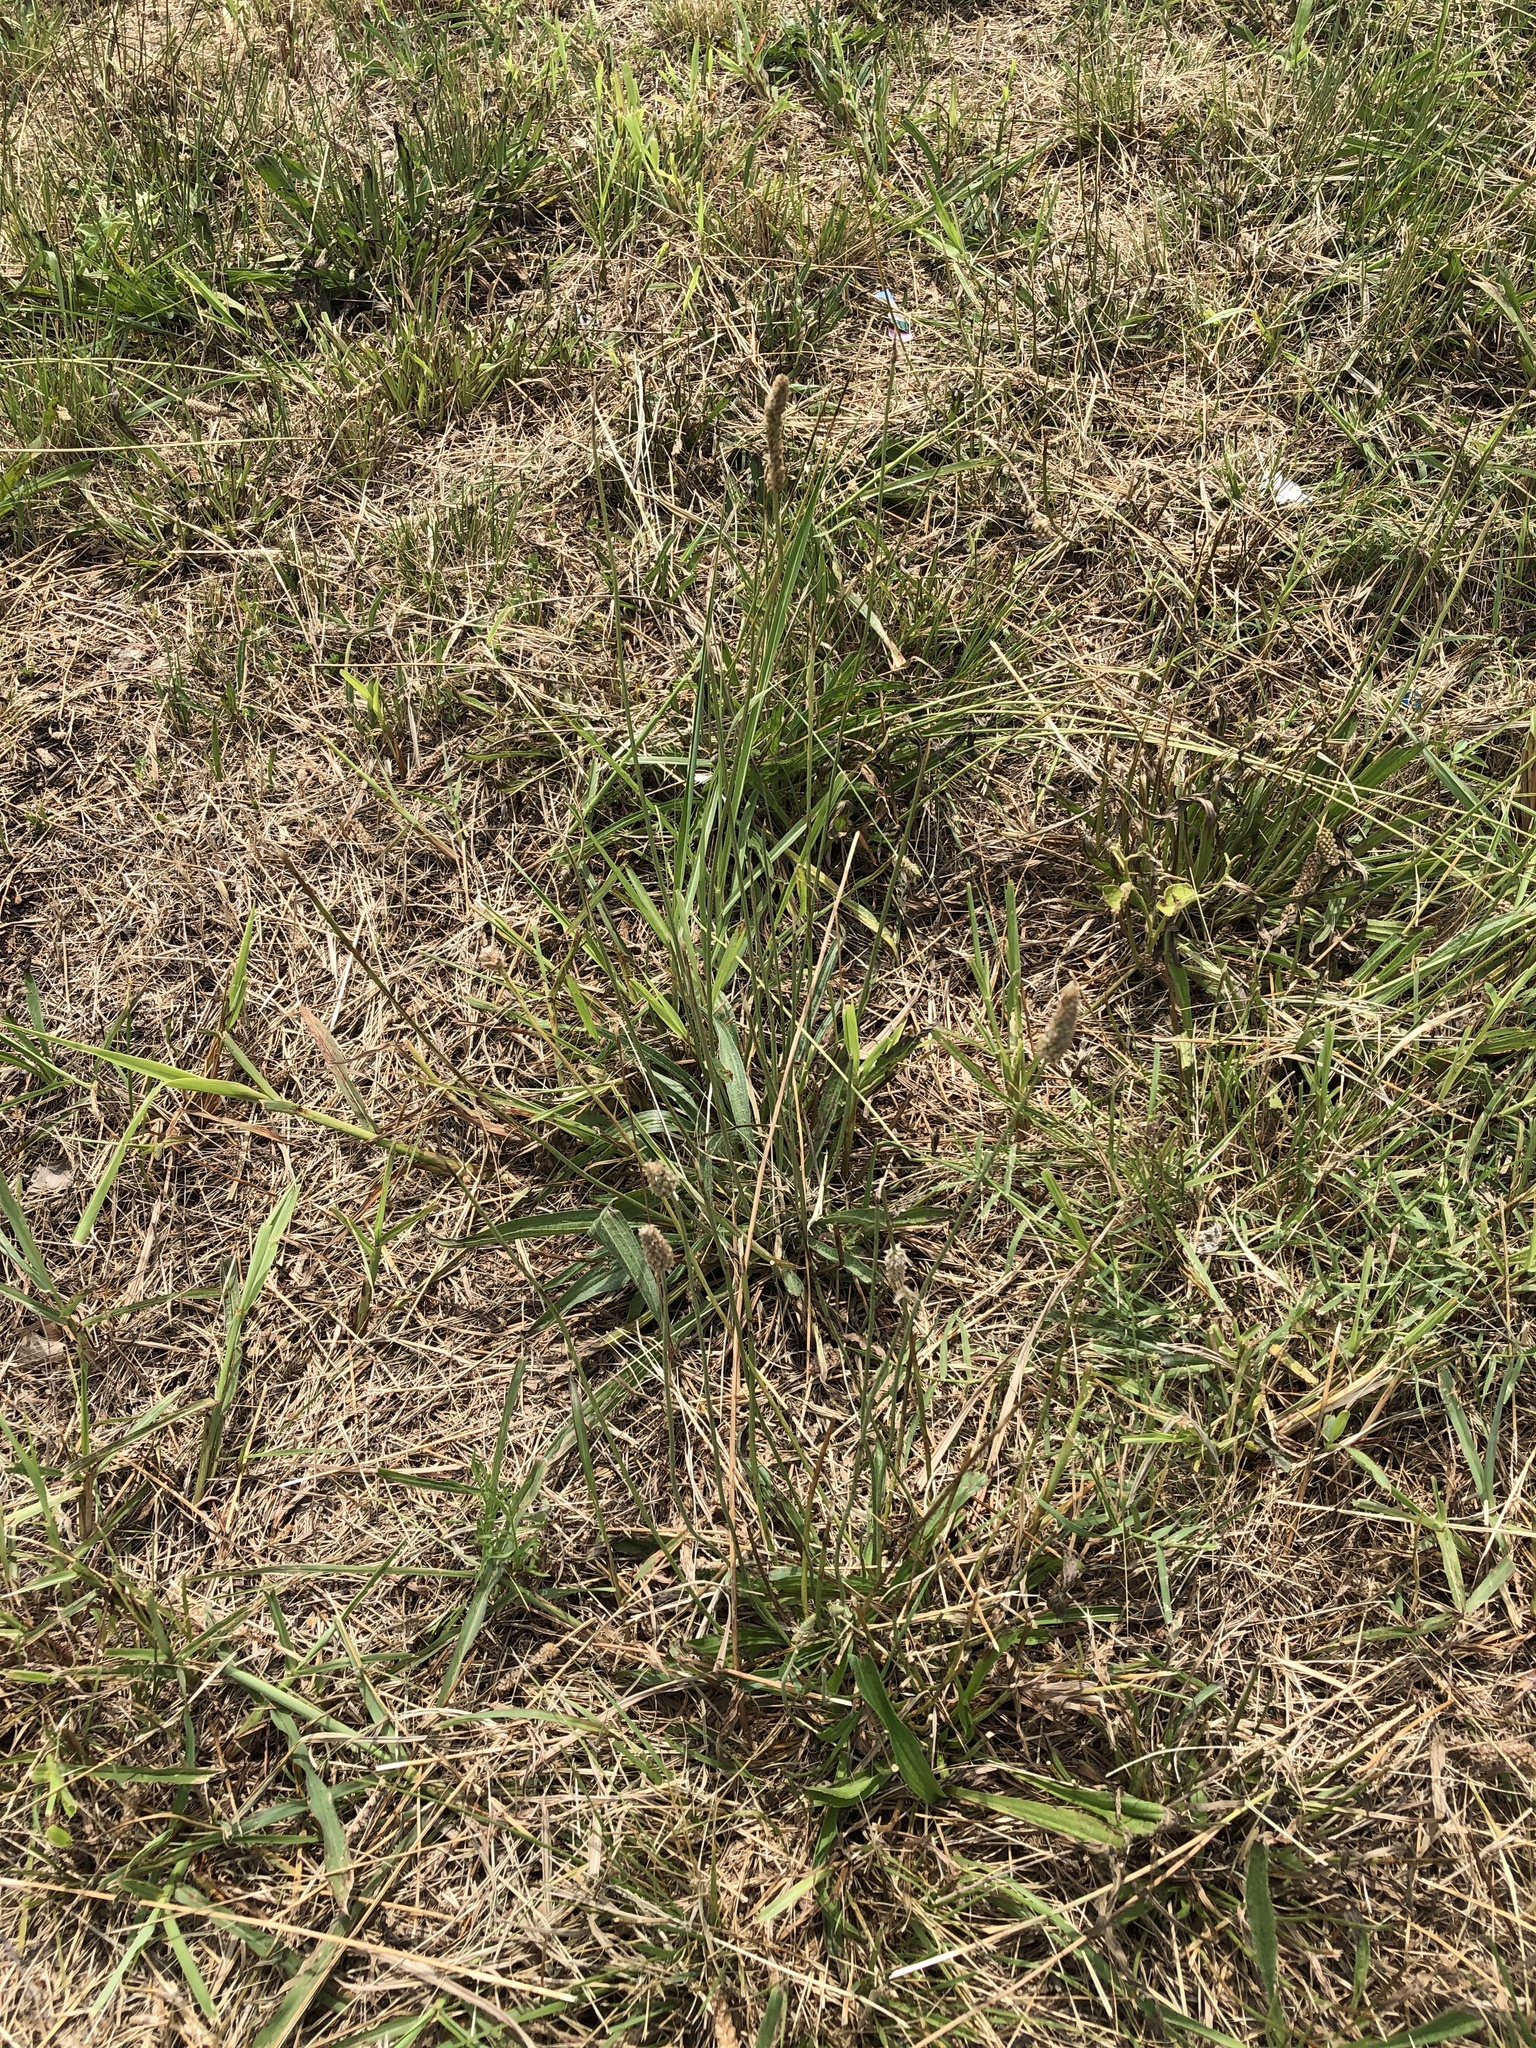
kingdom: Plantae
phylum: Tracheophyta
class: Magnoliopsida
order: Lamiales
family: Plantaginaceae
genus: Plantago
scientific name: Plantago lanceolata
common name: Ribwort plantain
